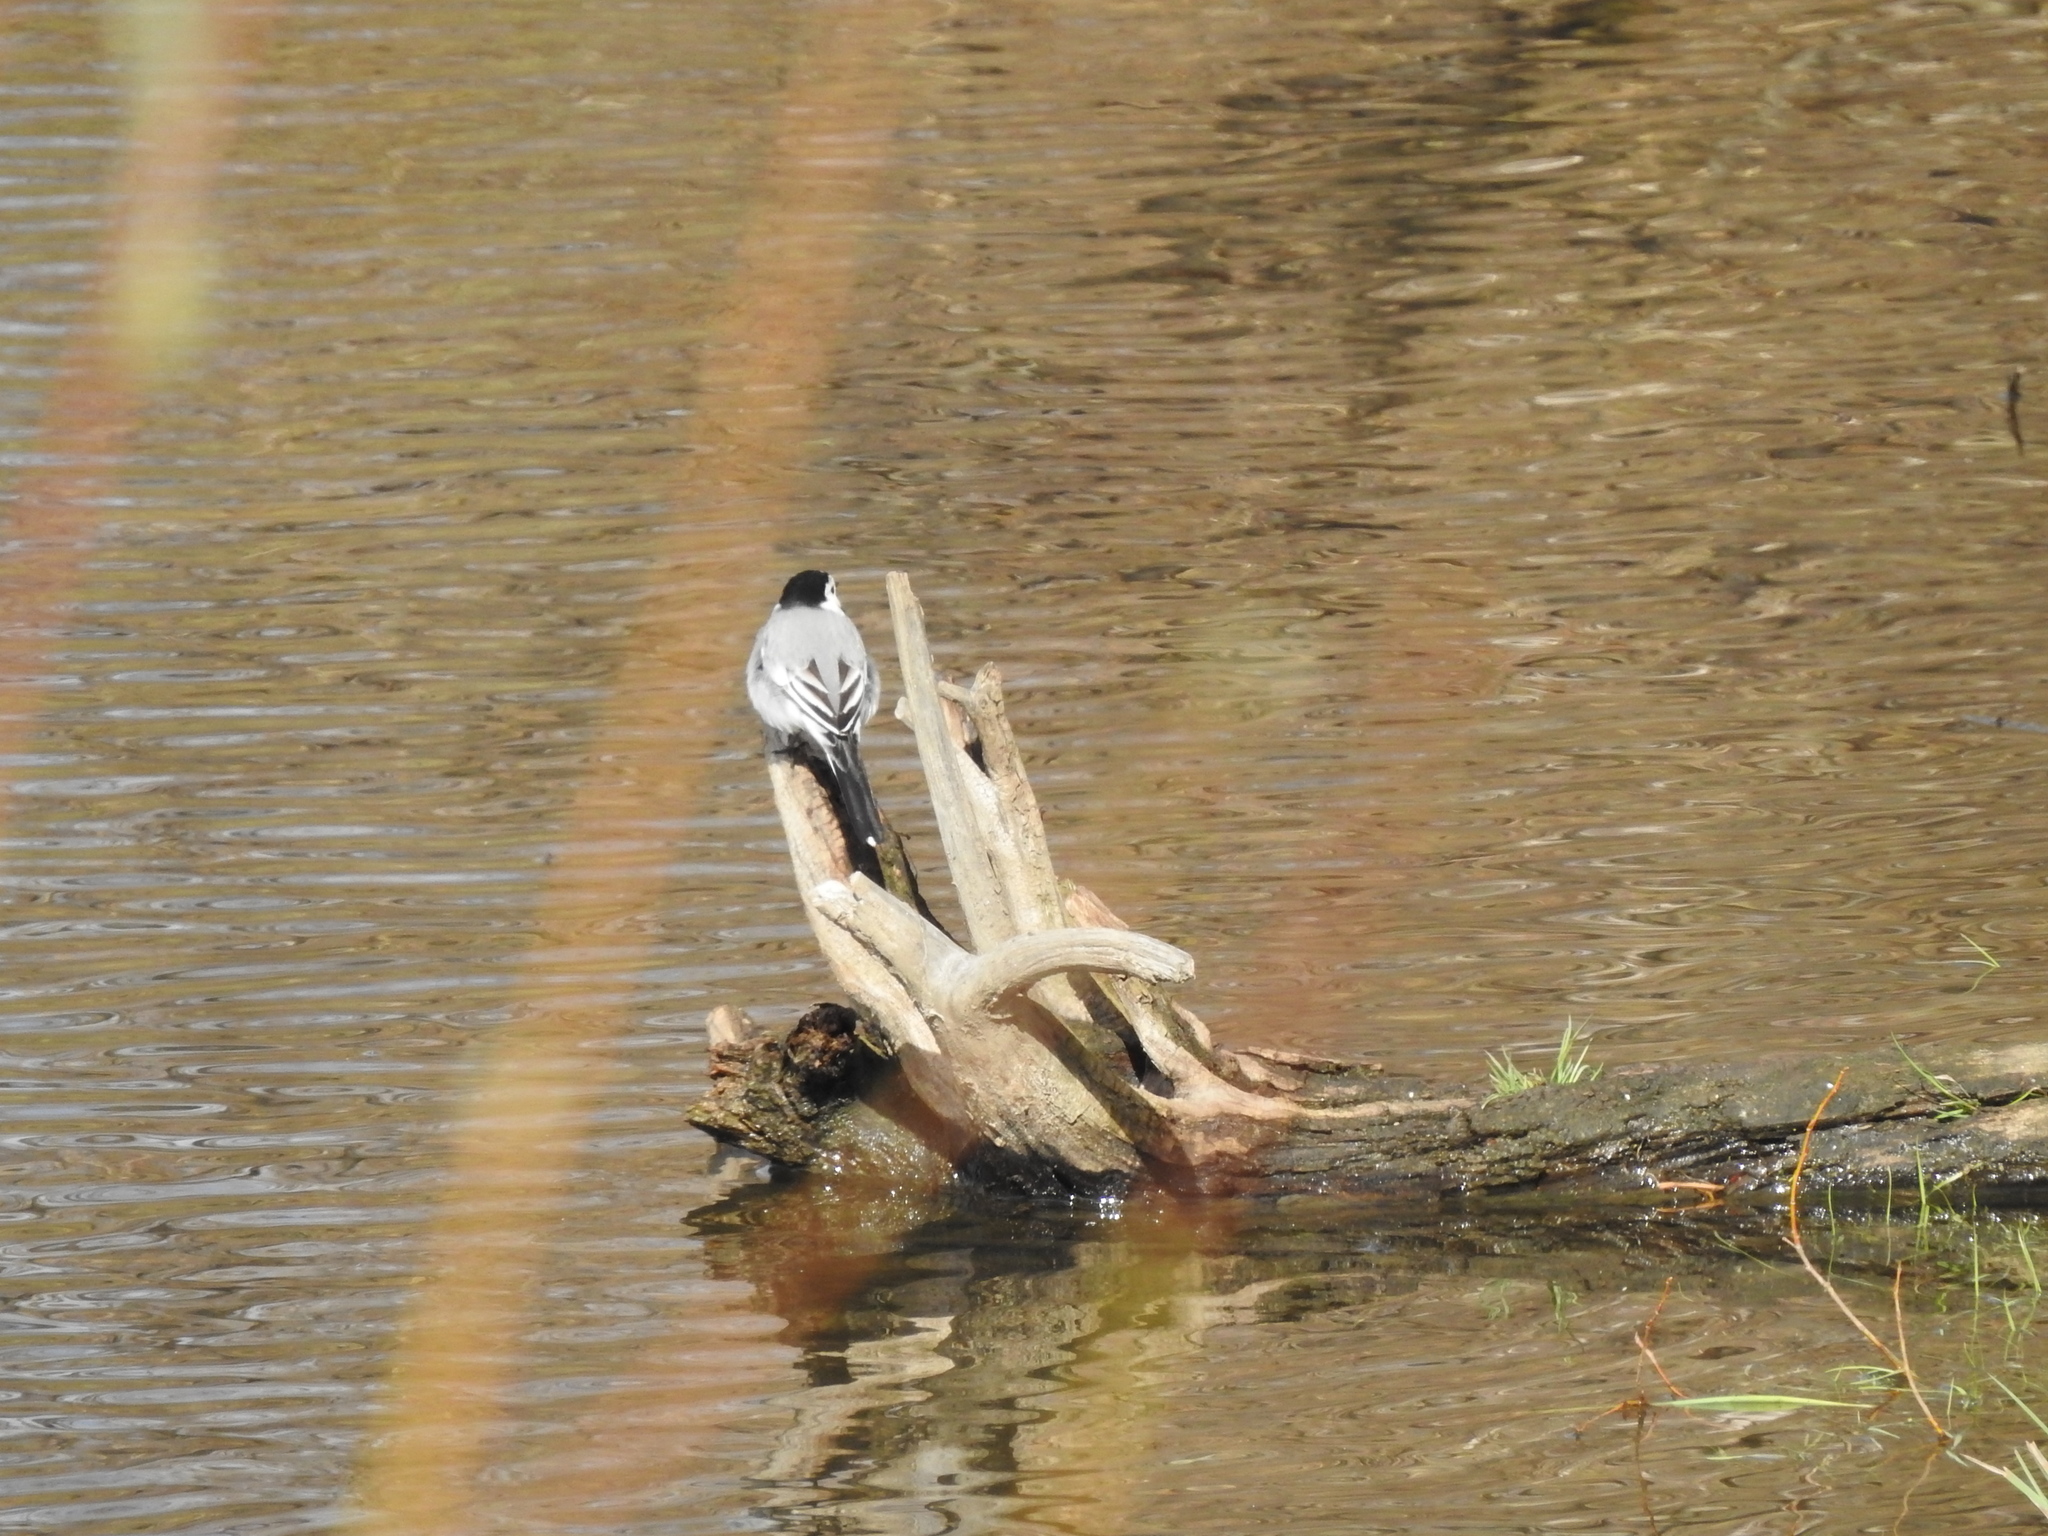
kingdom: Animalia
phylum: Chordata
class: Aves
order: Passeriformes
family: Motacillidae
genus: Motacilla
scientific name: Motacilla alba
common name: White wagtail
